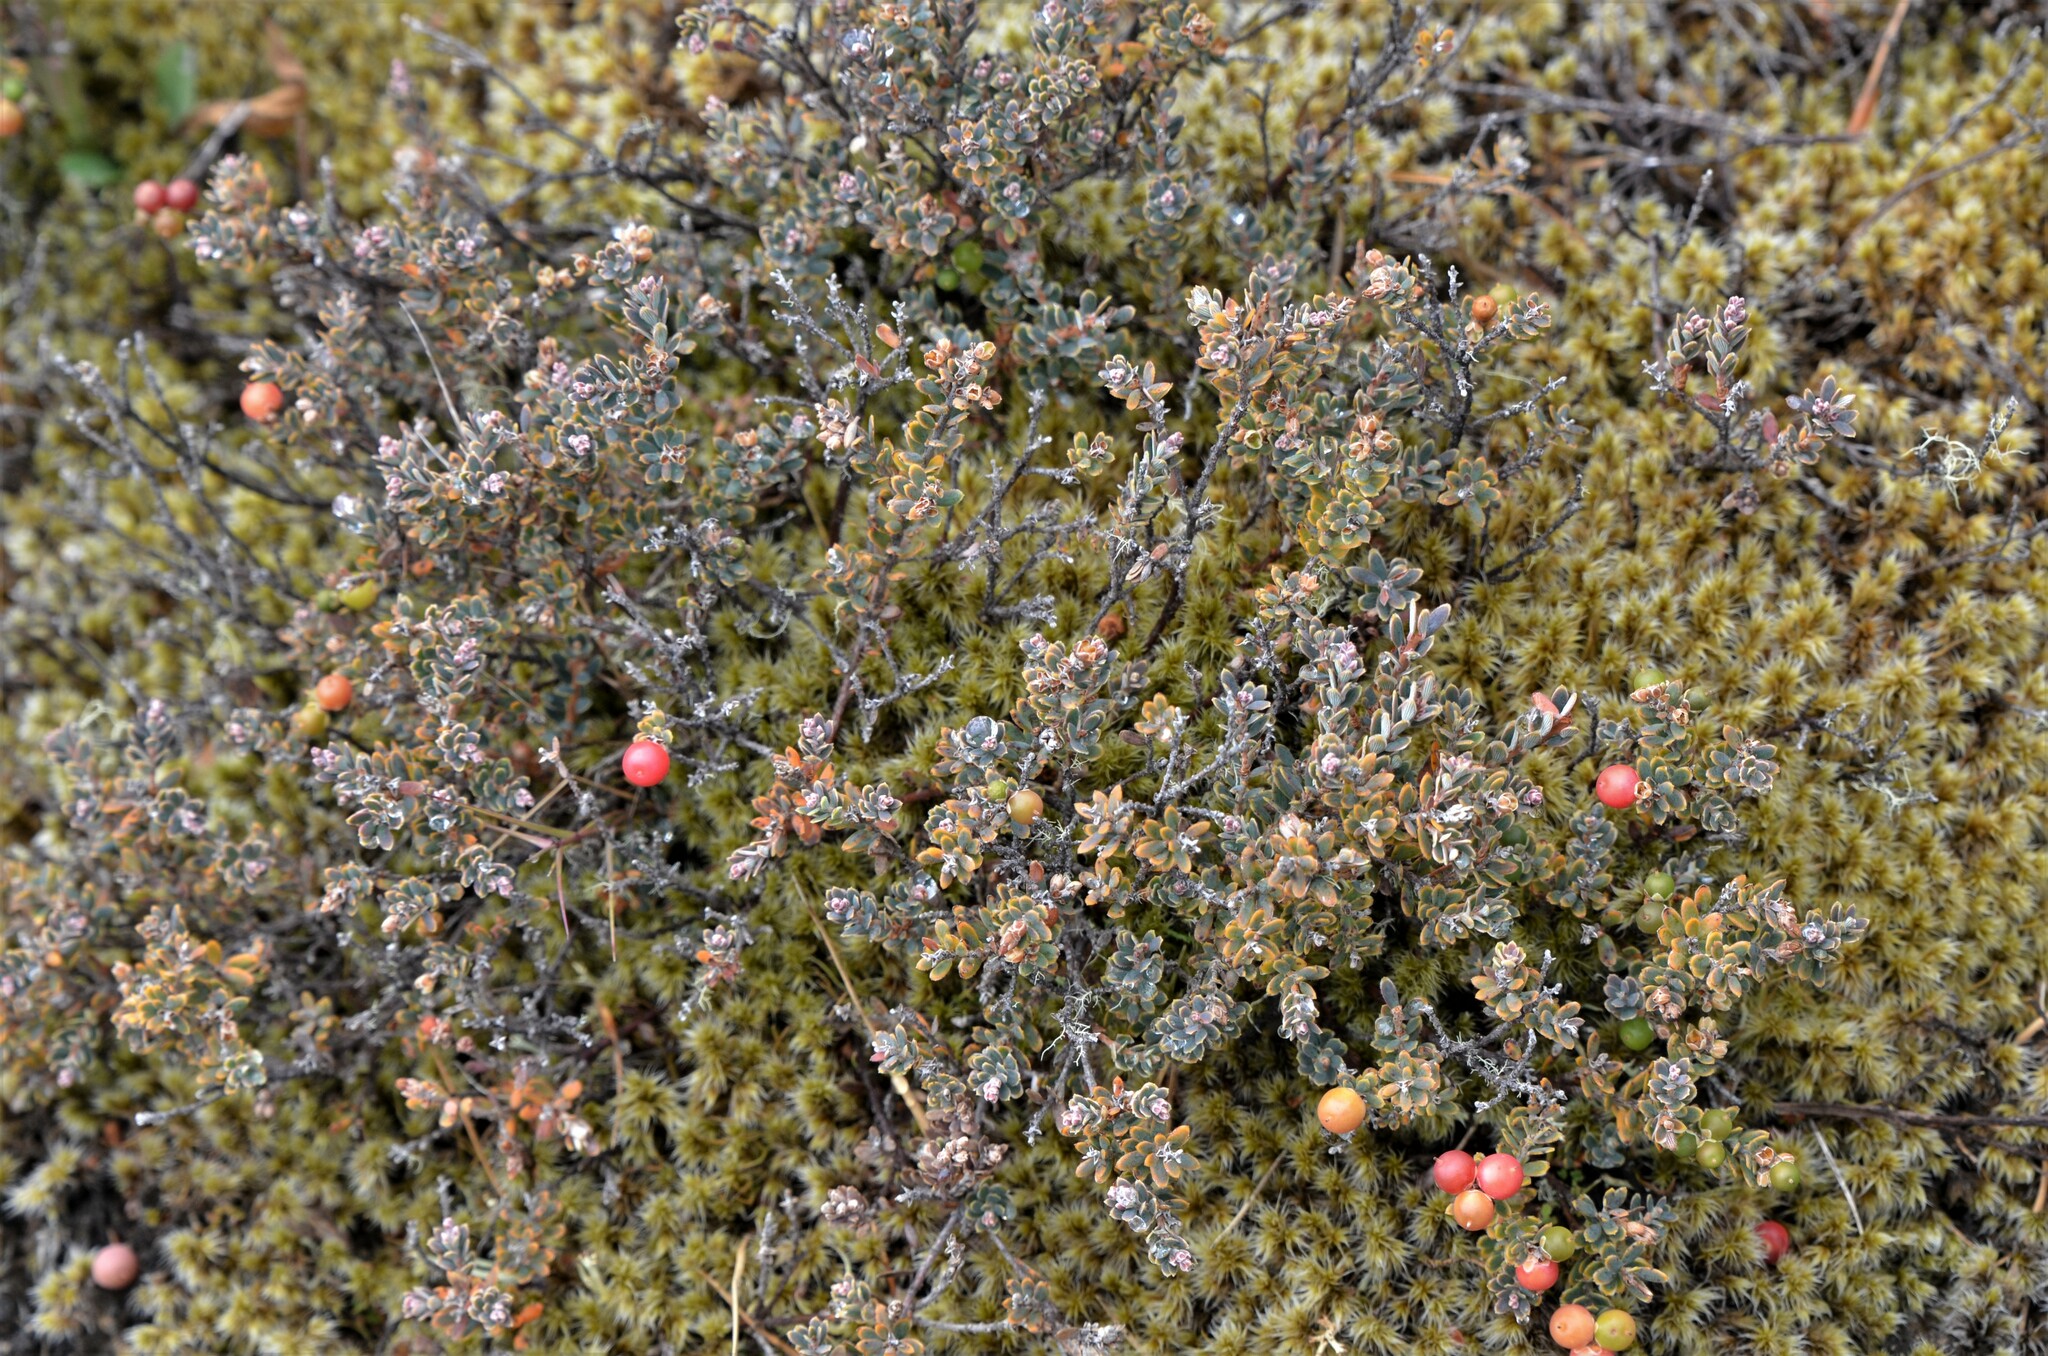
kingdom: Plantae
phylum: Tracheophyta
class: Magnoliopsida
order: Ericales
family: Ericaceae
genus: Acrothamnus
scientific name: Acrothamnus colensoi
